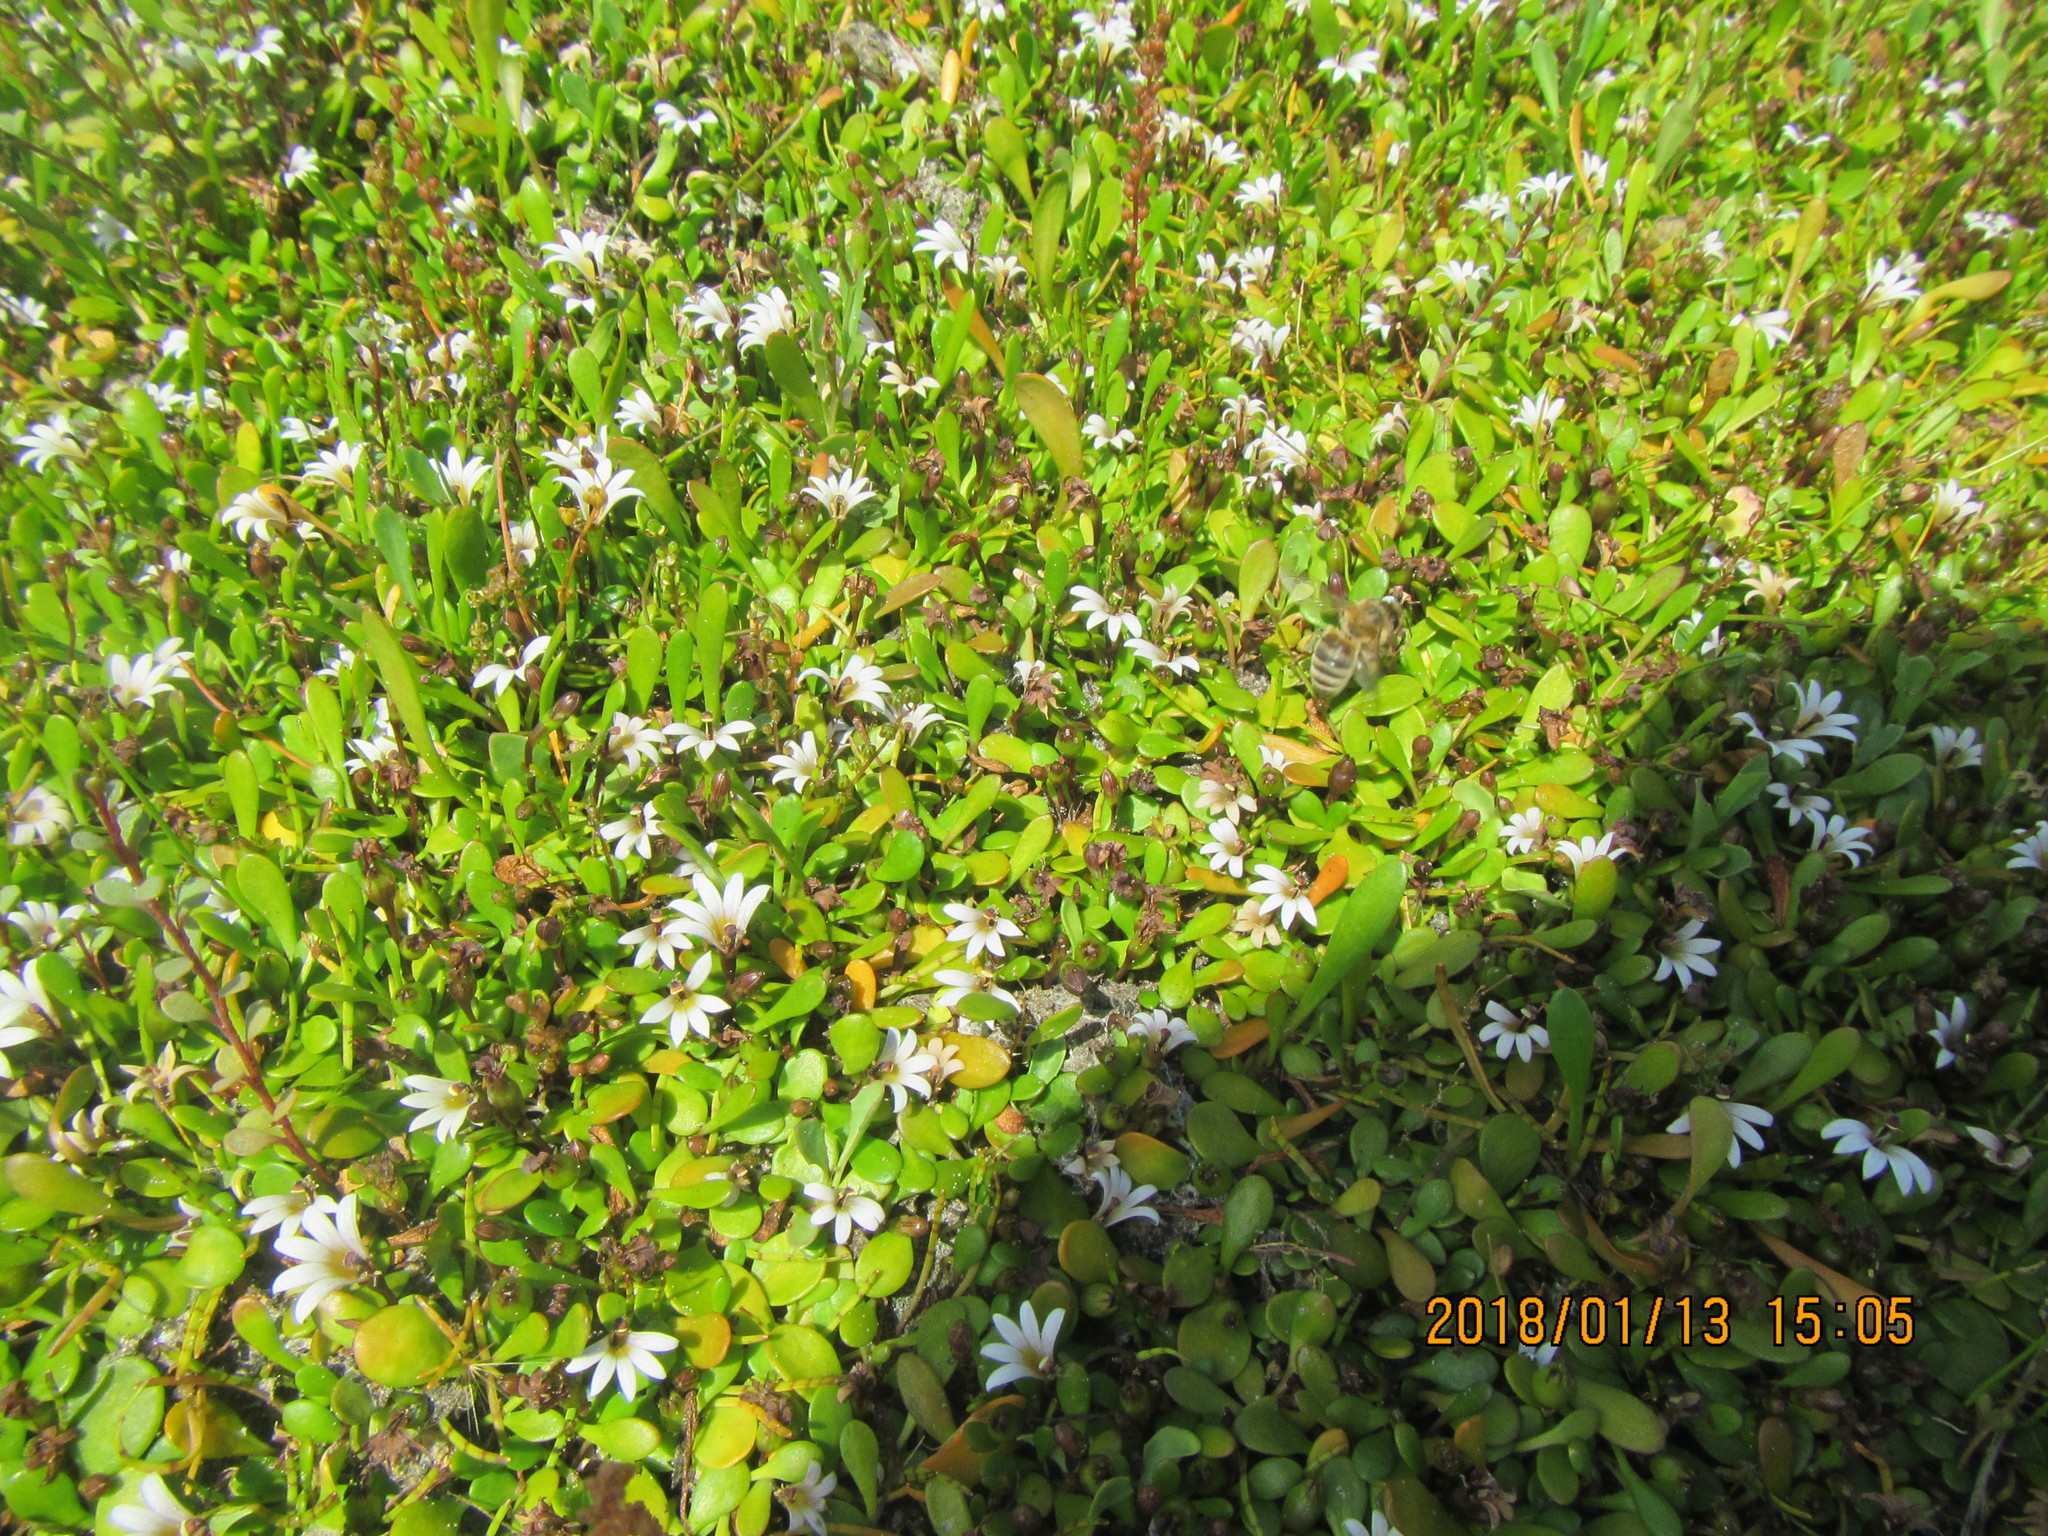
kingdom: Animalia
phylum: Arthropoda
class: Insecta
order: Hymenoptera
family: Apidae
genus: Apis
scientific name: Apis mellifera
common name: Honey bee
